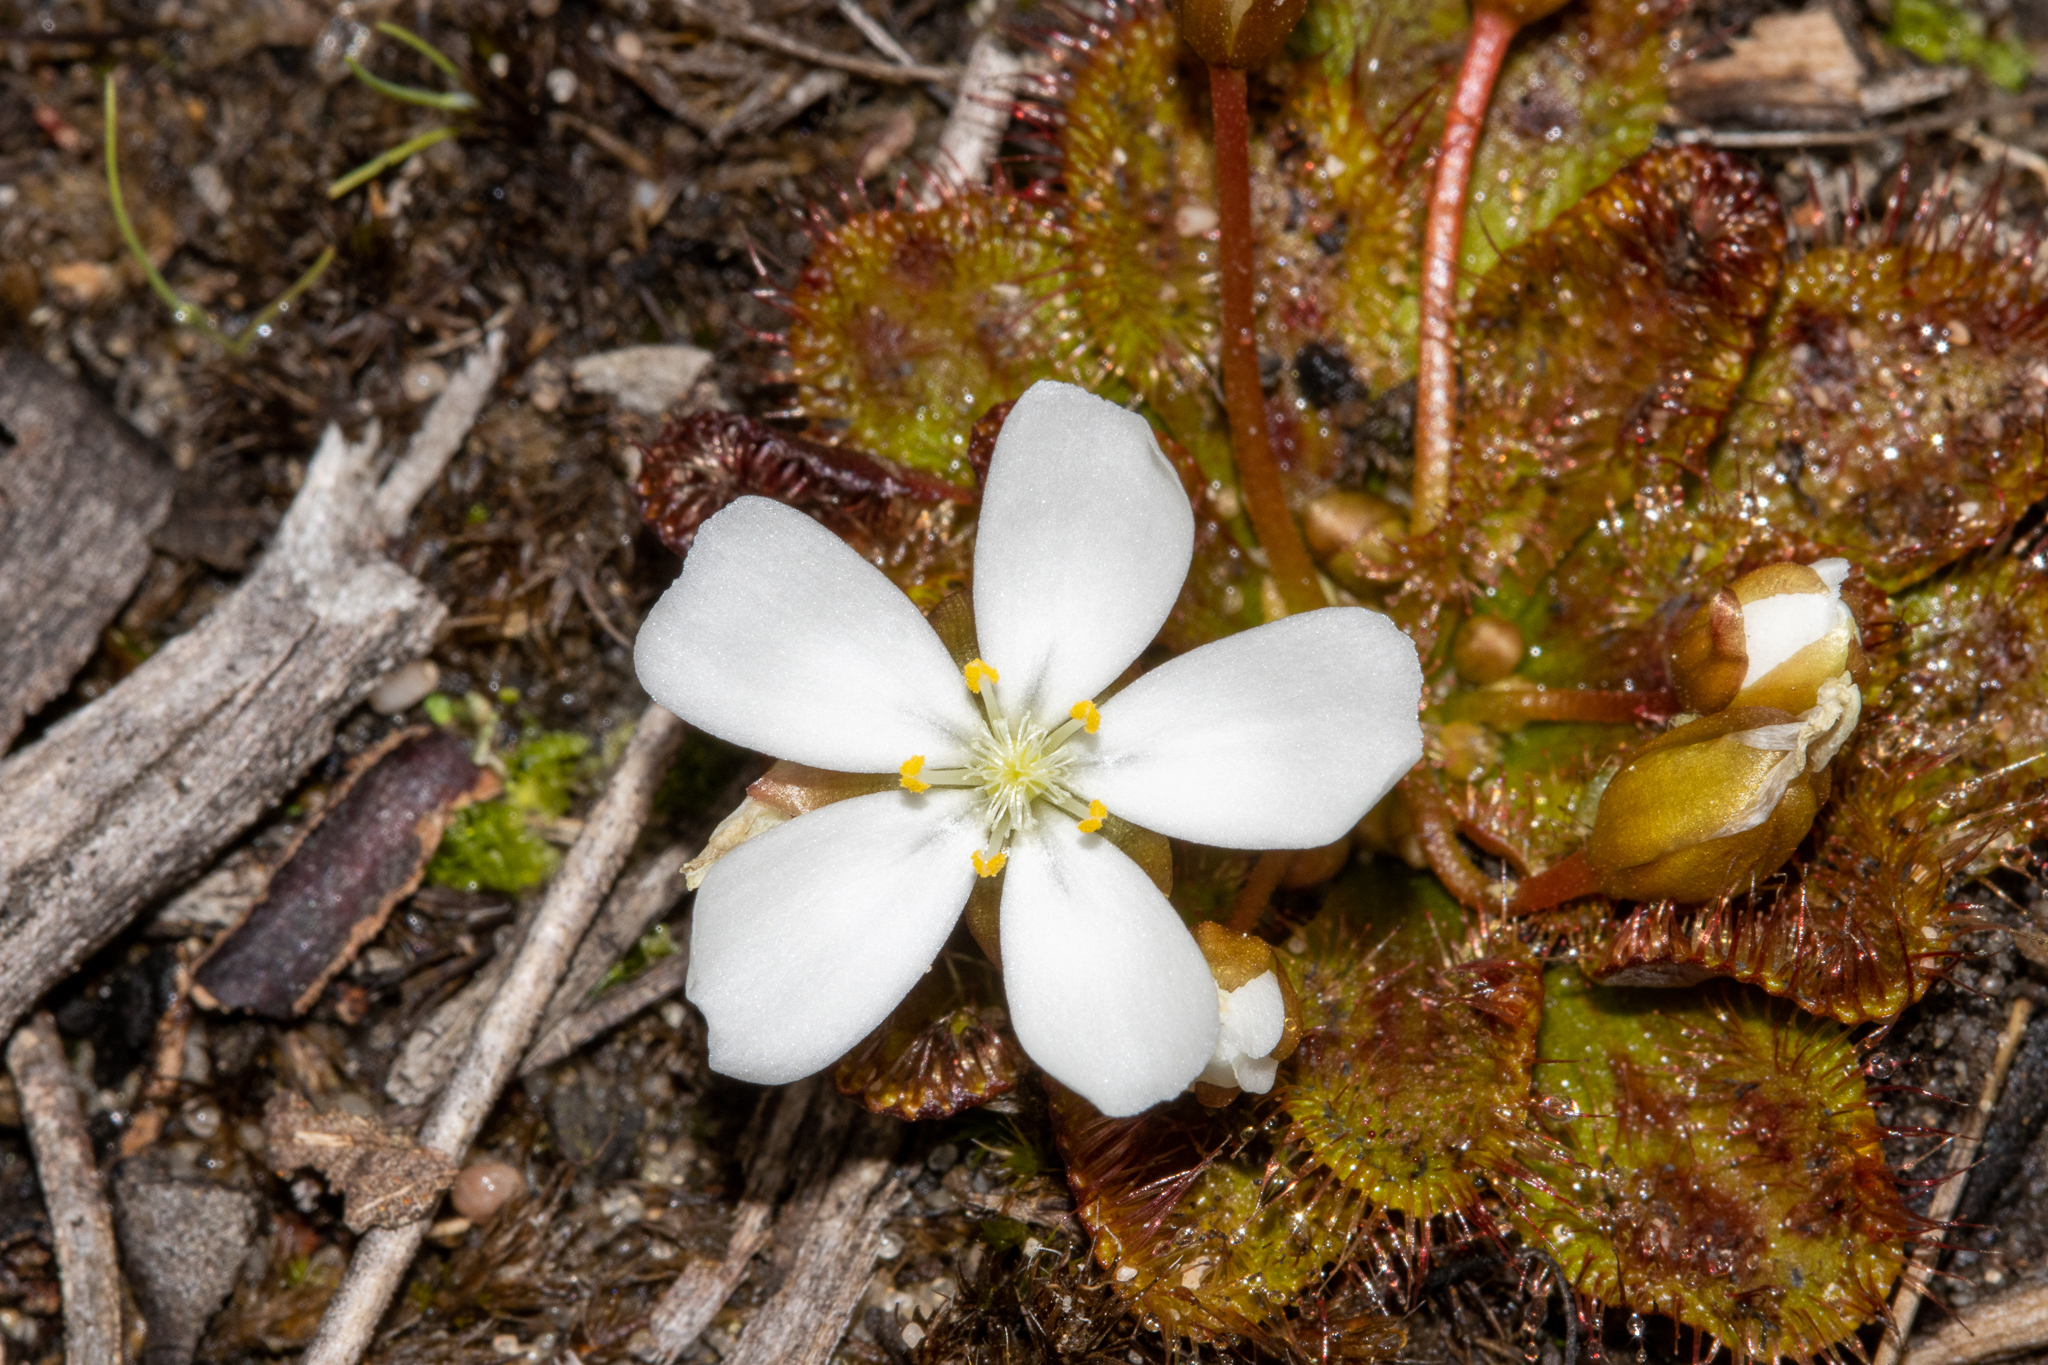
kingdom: Plantae
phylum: Tracheophyta
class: Magnoliopsida
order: Caryophyllales
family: Droseraceae
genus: Drosera
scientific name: Drosera whittakeri
